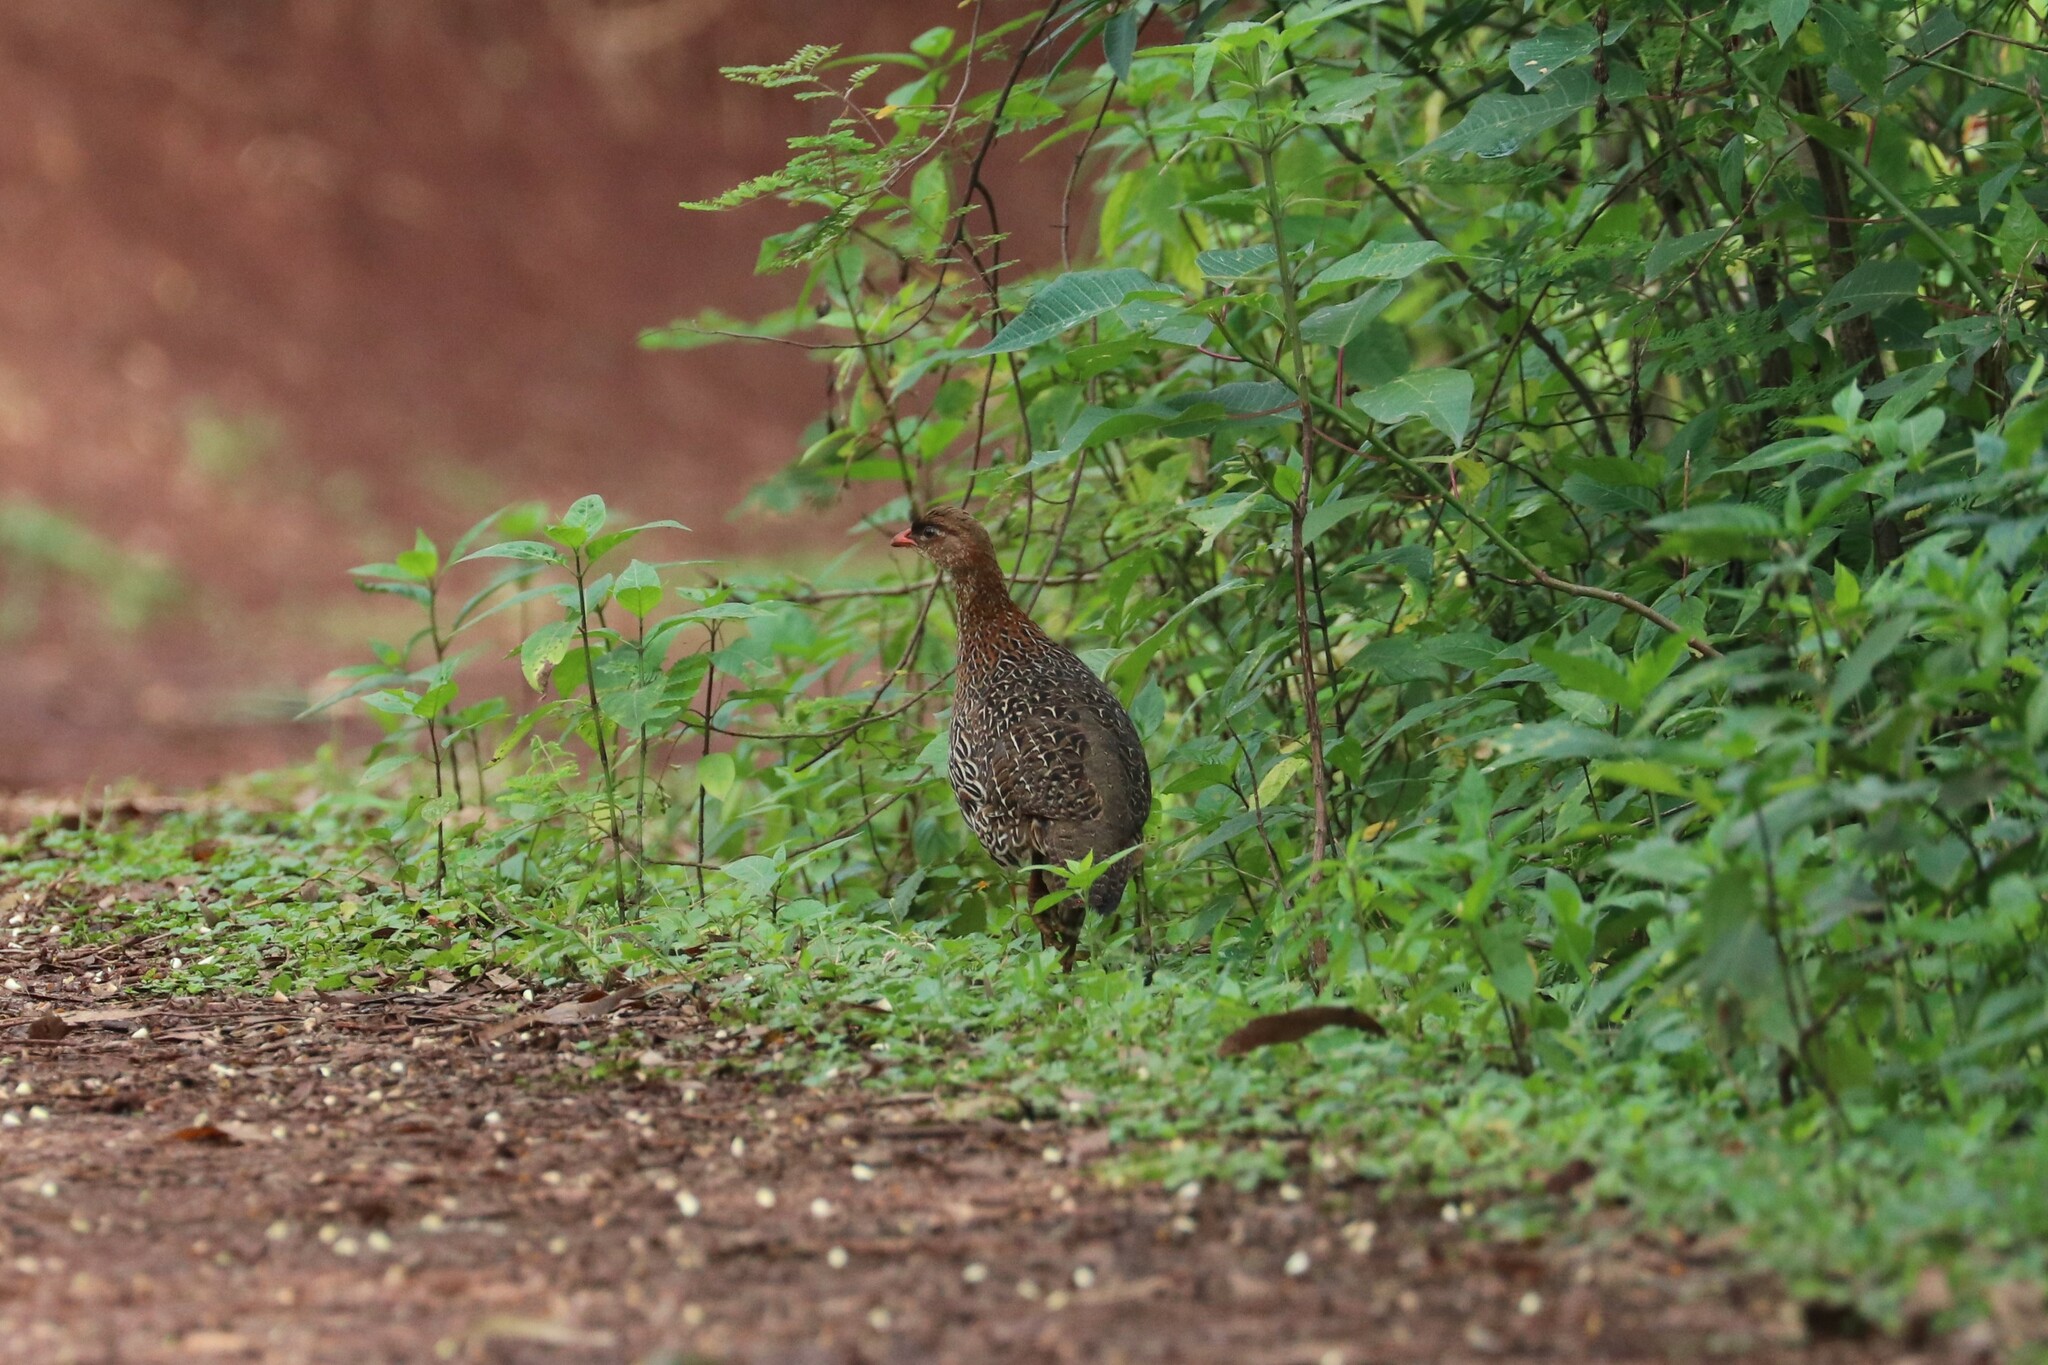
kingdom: Animalia
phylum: Chordata
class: Aves
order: Galliformes
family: Phasianidae
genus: Pternistis
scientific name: Pternistis castaneicollis
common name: Chestnut-naped francolin
